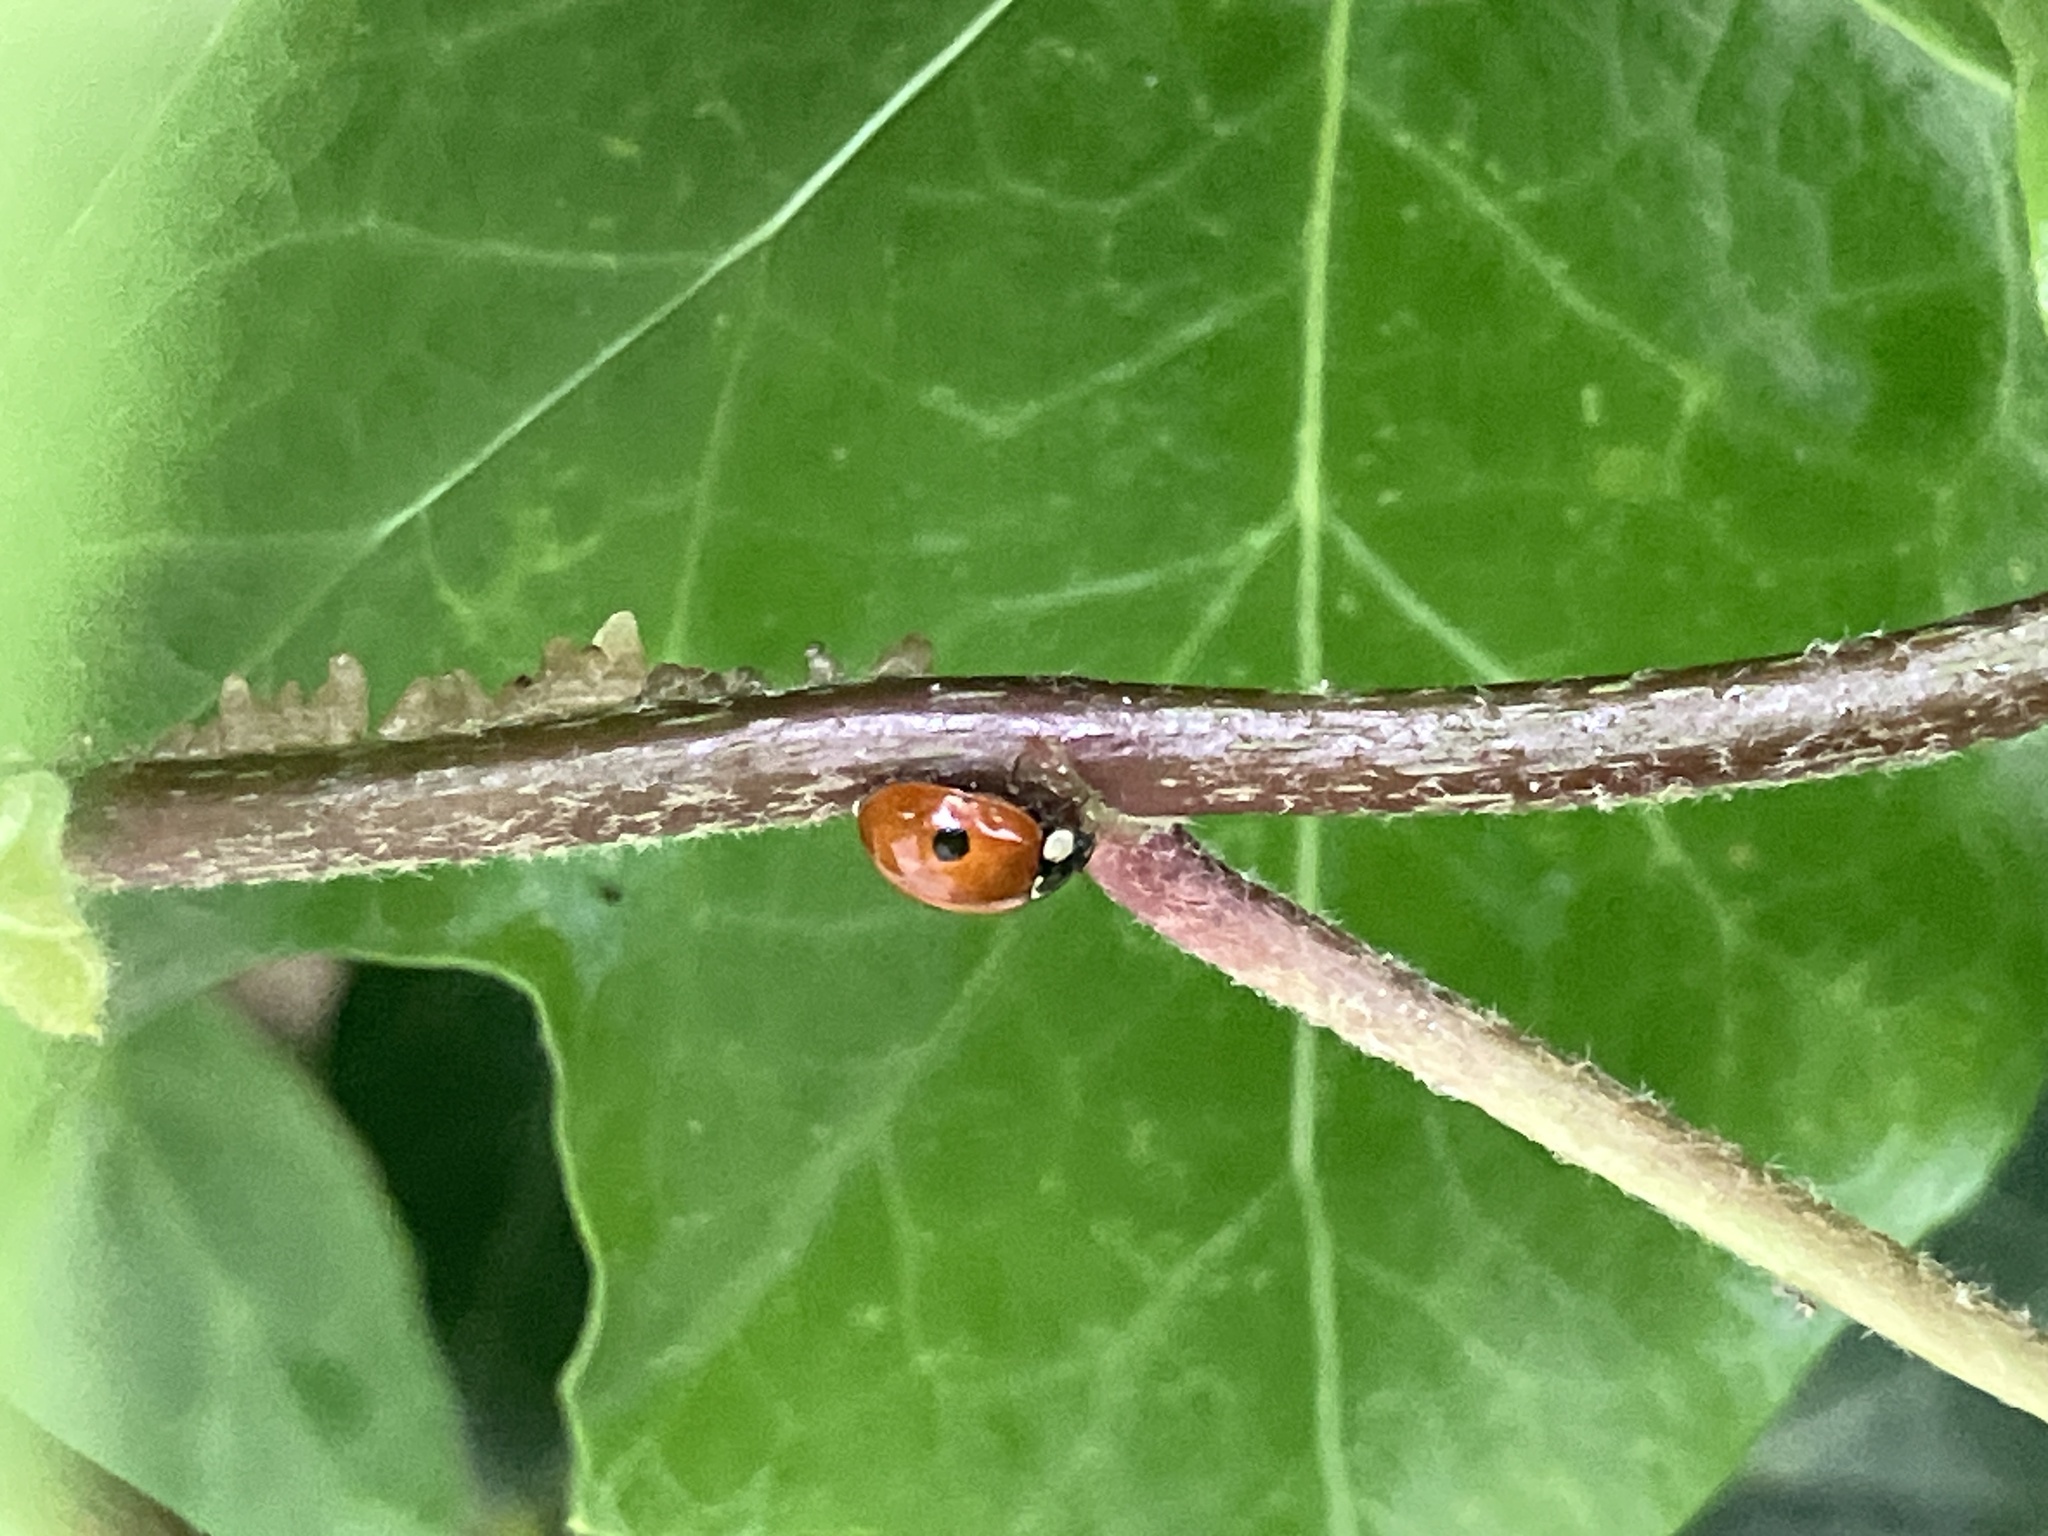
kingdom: Animalia
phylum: Arthropoda
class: Insecta
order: Coleoptera
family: Coccinellidae
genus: Adalia
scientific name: Adalia bipunctata
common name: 2-spot ladybird
